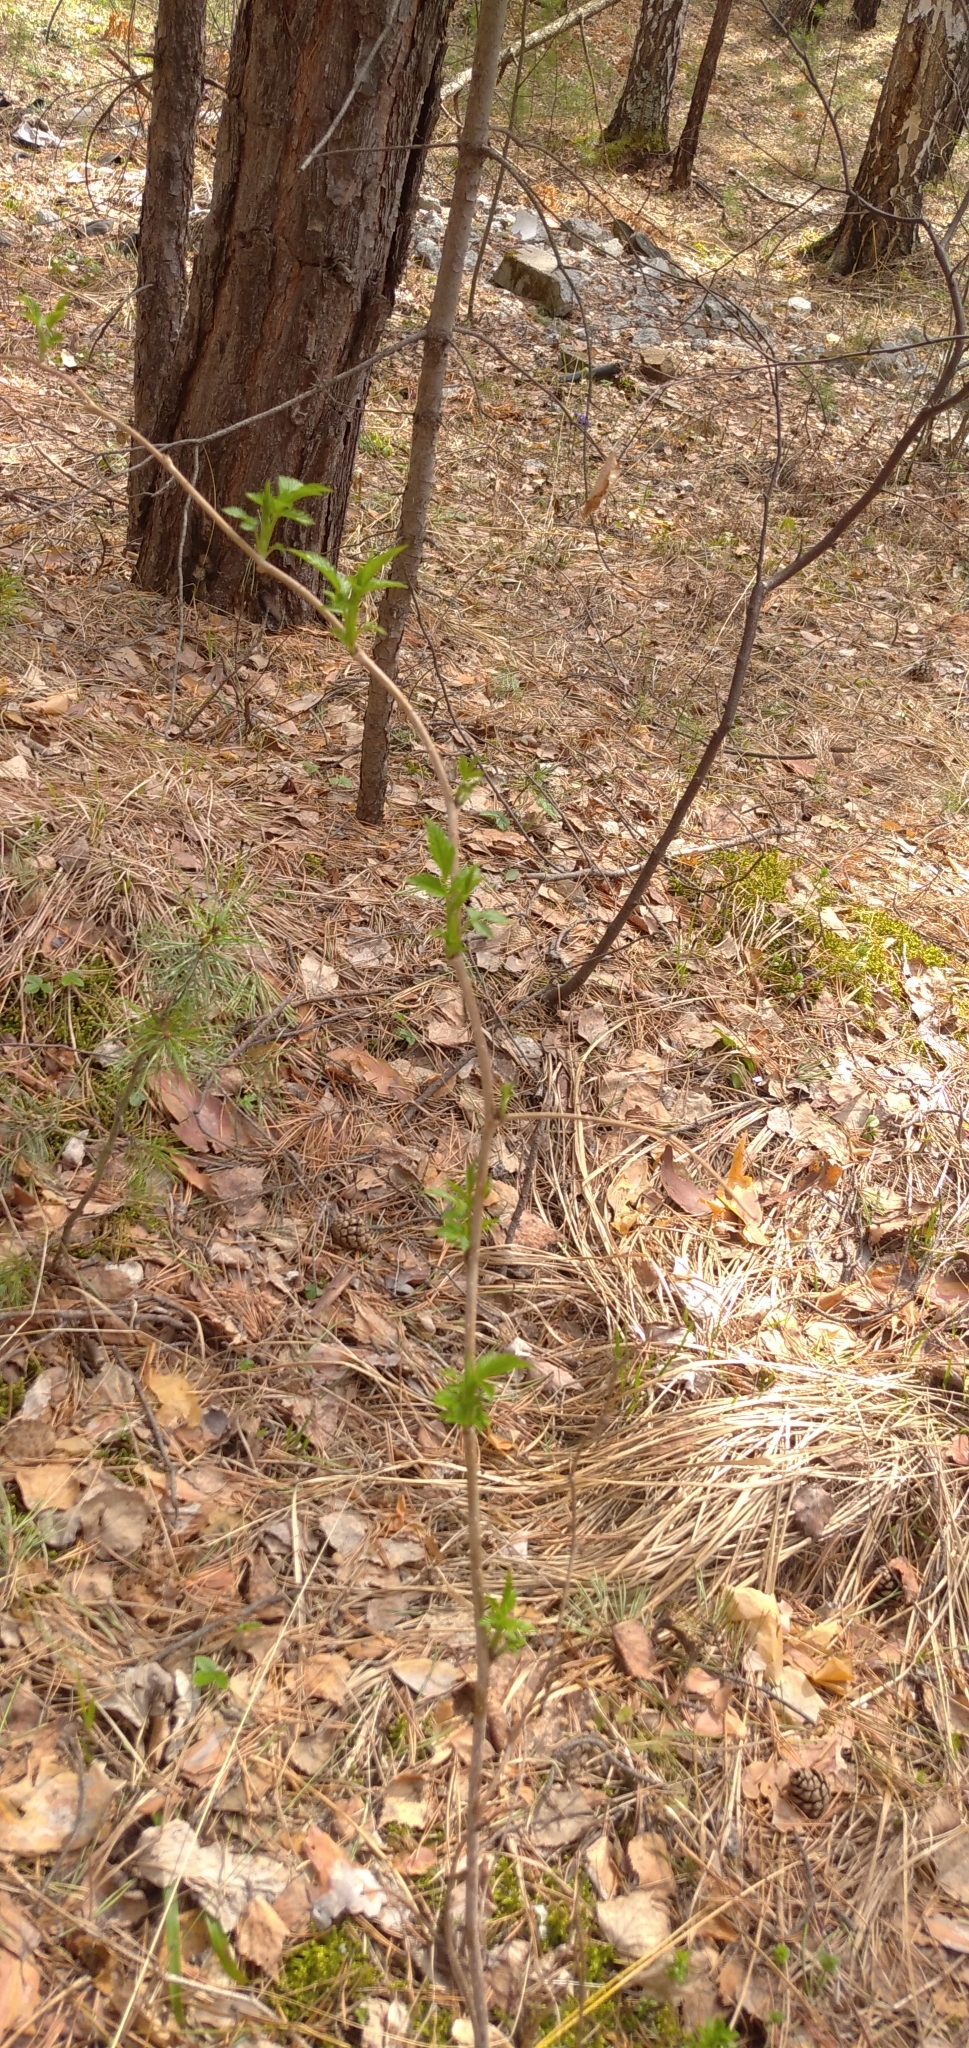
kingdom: Plantae
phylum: Tracheophyta
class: Magnoliopsida
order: Rosales
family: Rosaceae
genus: Rubus
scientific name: Rubus idaeus
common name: Raspberry
